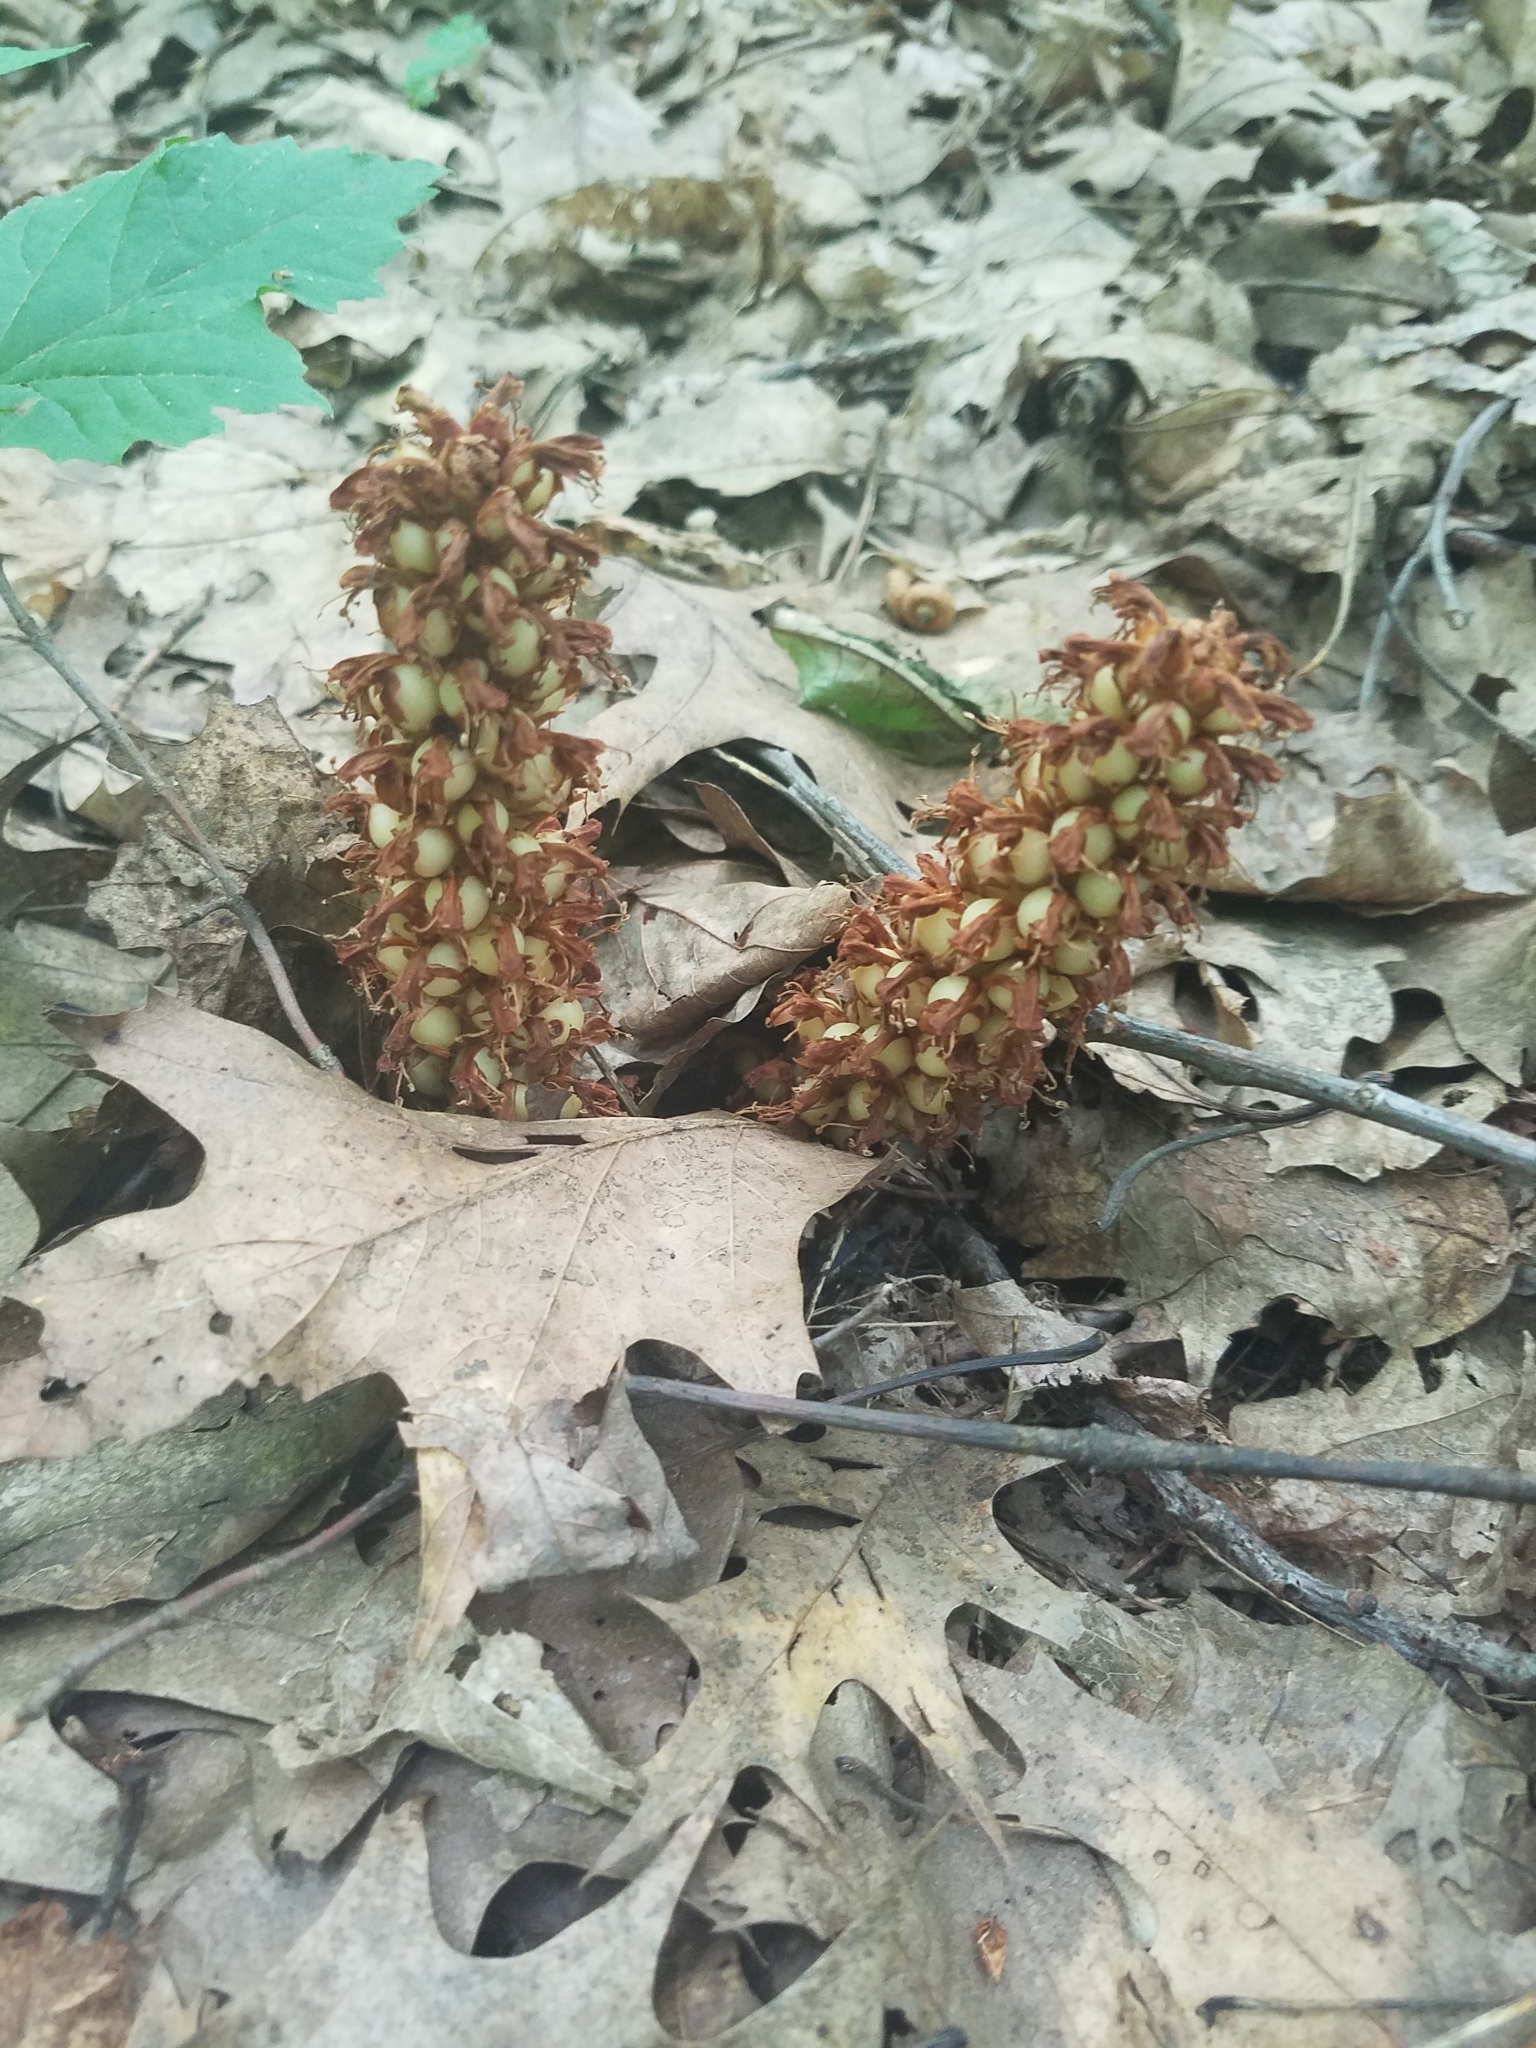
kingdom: Plantae
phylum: Tracheophyta
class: Magnoliopsida
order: Lamiales
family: Orobanchaceae
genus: Conopholis
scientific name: Conopholis americana
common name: American cancer-root
